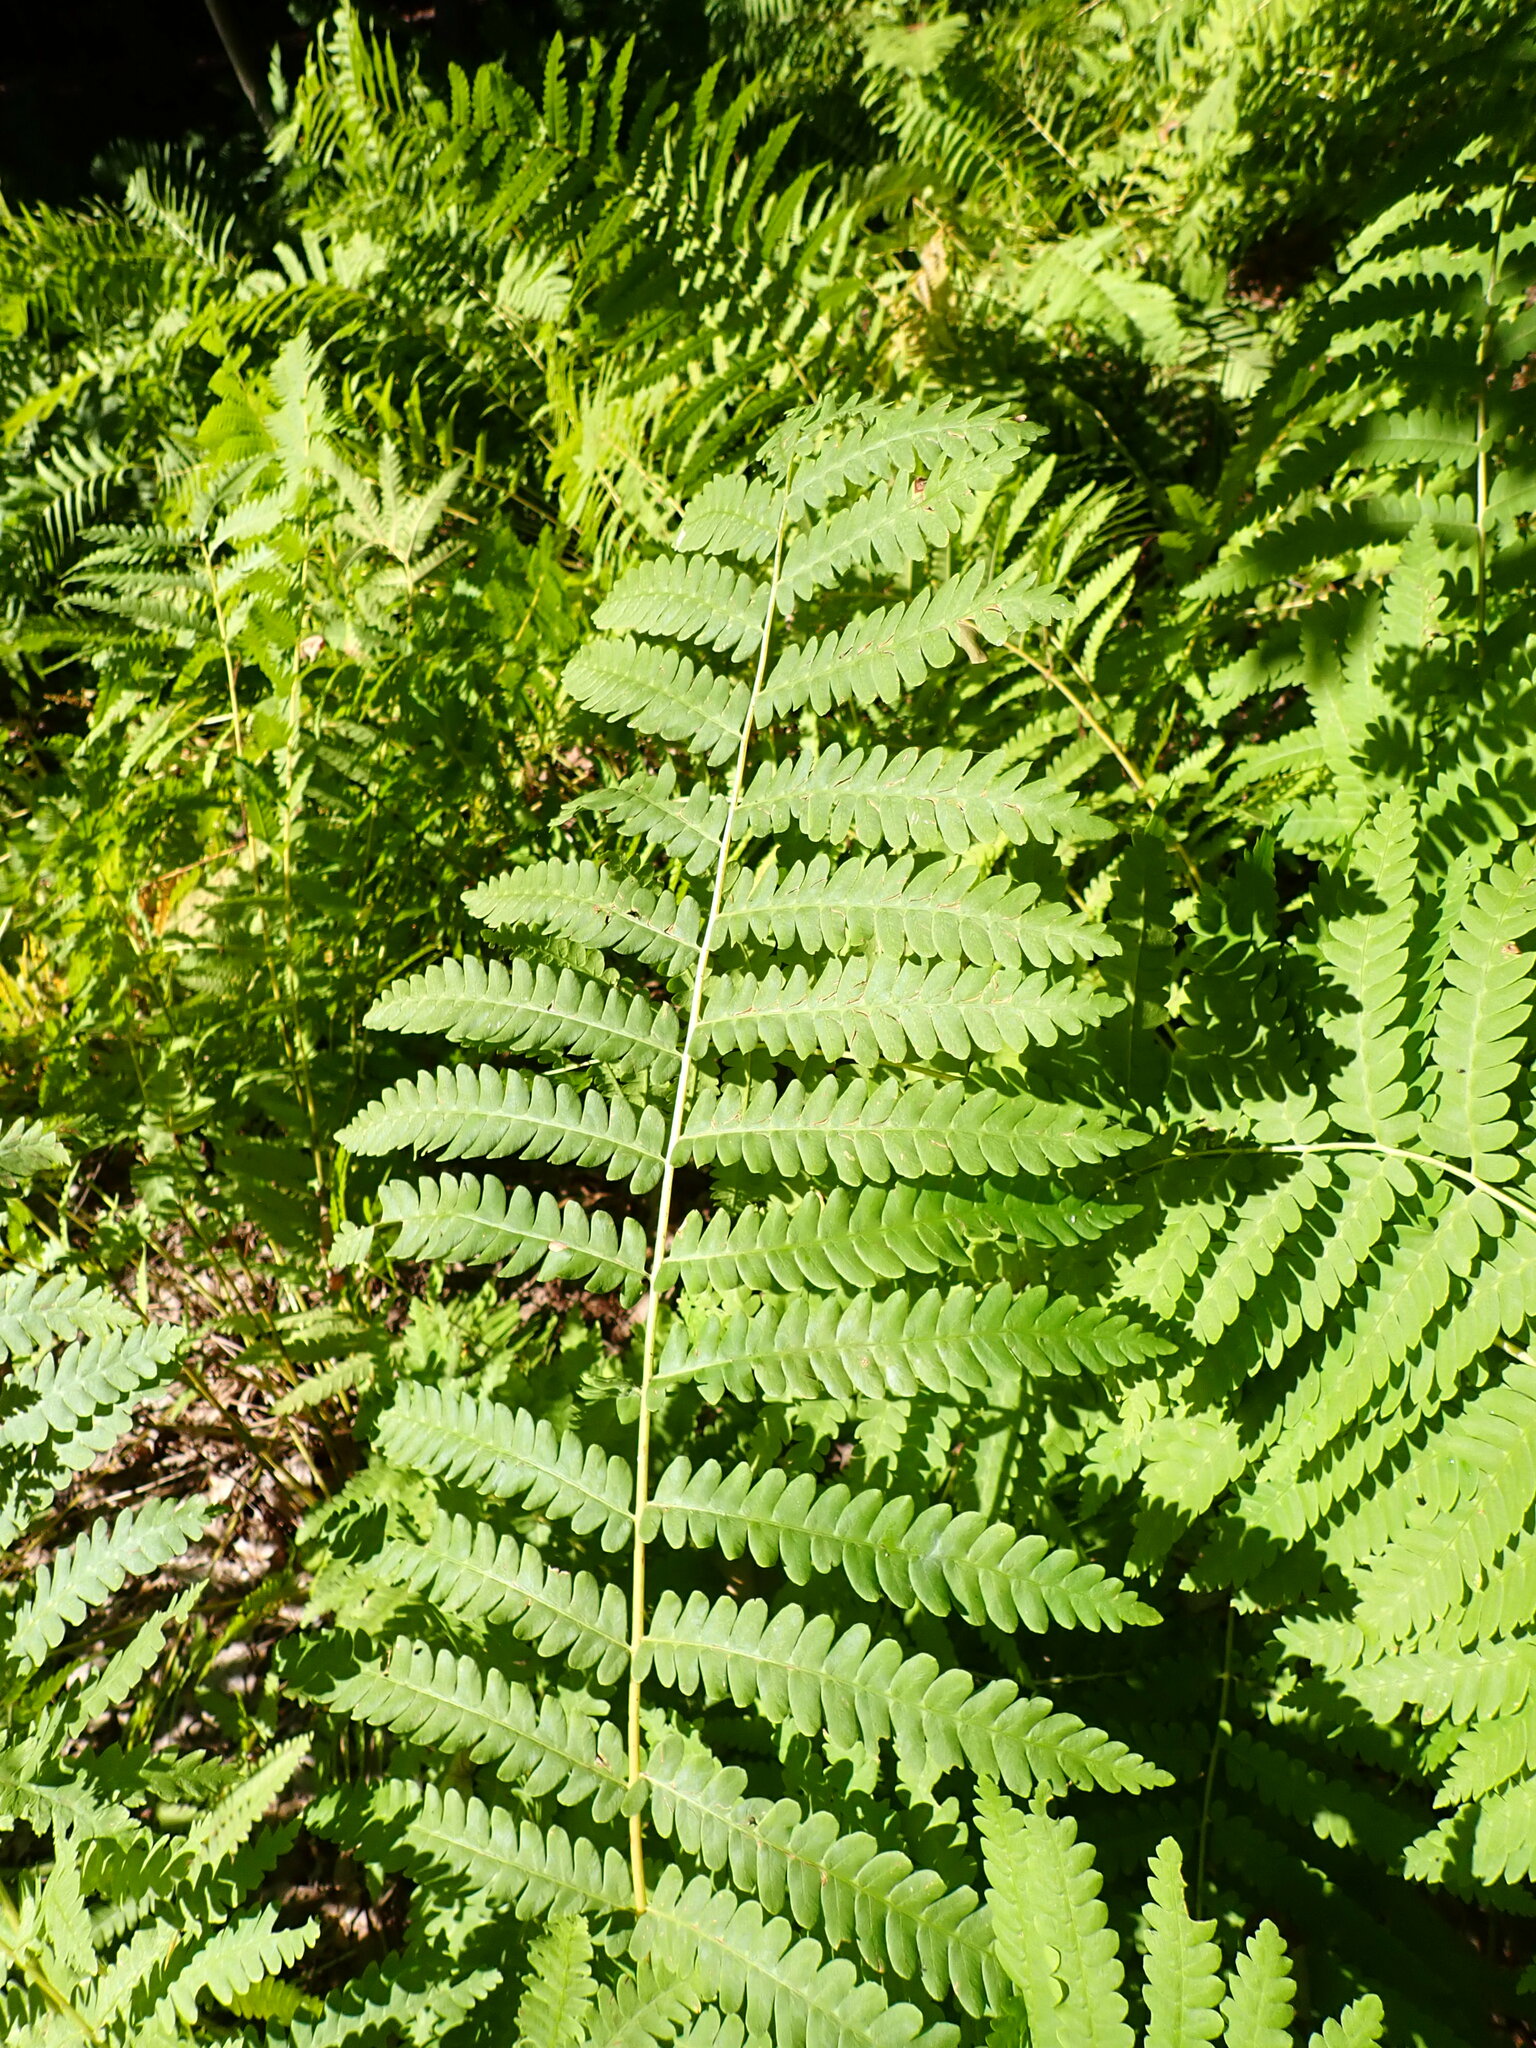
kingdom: Plantae
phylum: Tracheophyta
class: Polypodiopsida
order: Osmundales
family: Osmundaceae
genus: Claytosmunda
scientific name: Claytosmunda claytoniana
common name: Clayton's fern
